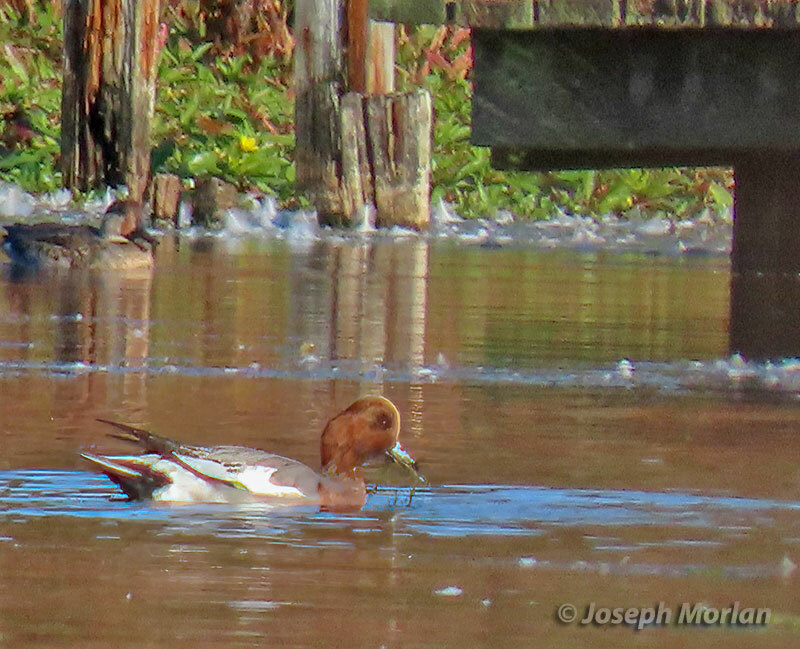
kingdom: Animalia
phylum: Chordata
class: Aves
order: Anseriformes
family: Anatidae
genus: Mareca
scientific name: Mareca penelope
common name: Eurasian wigeon
